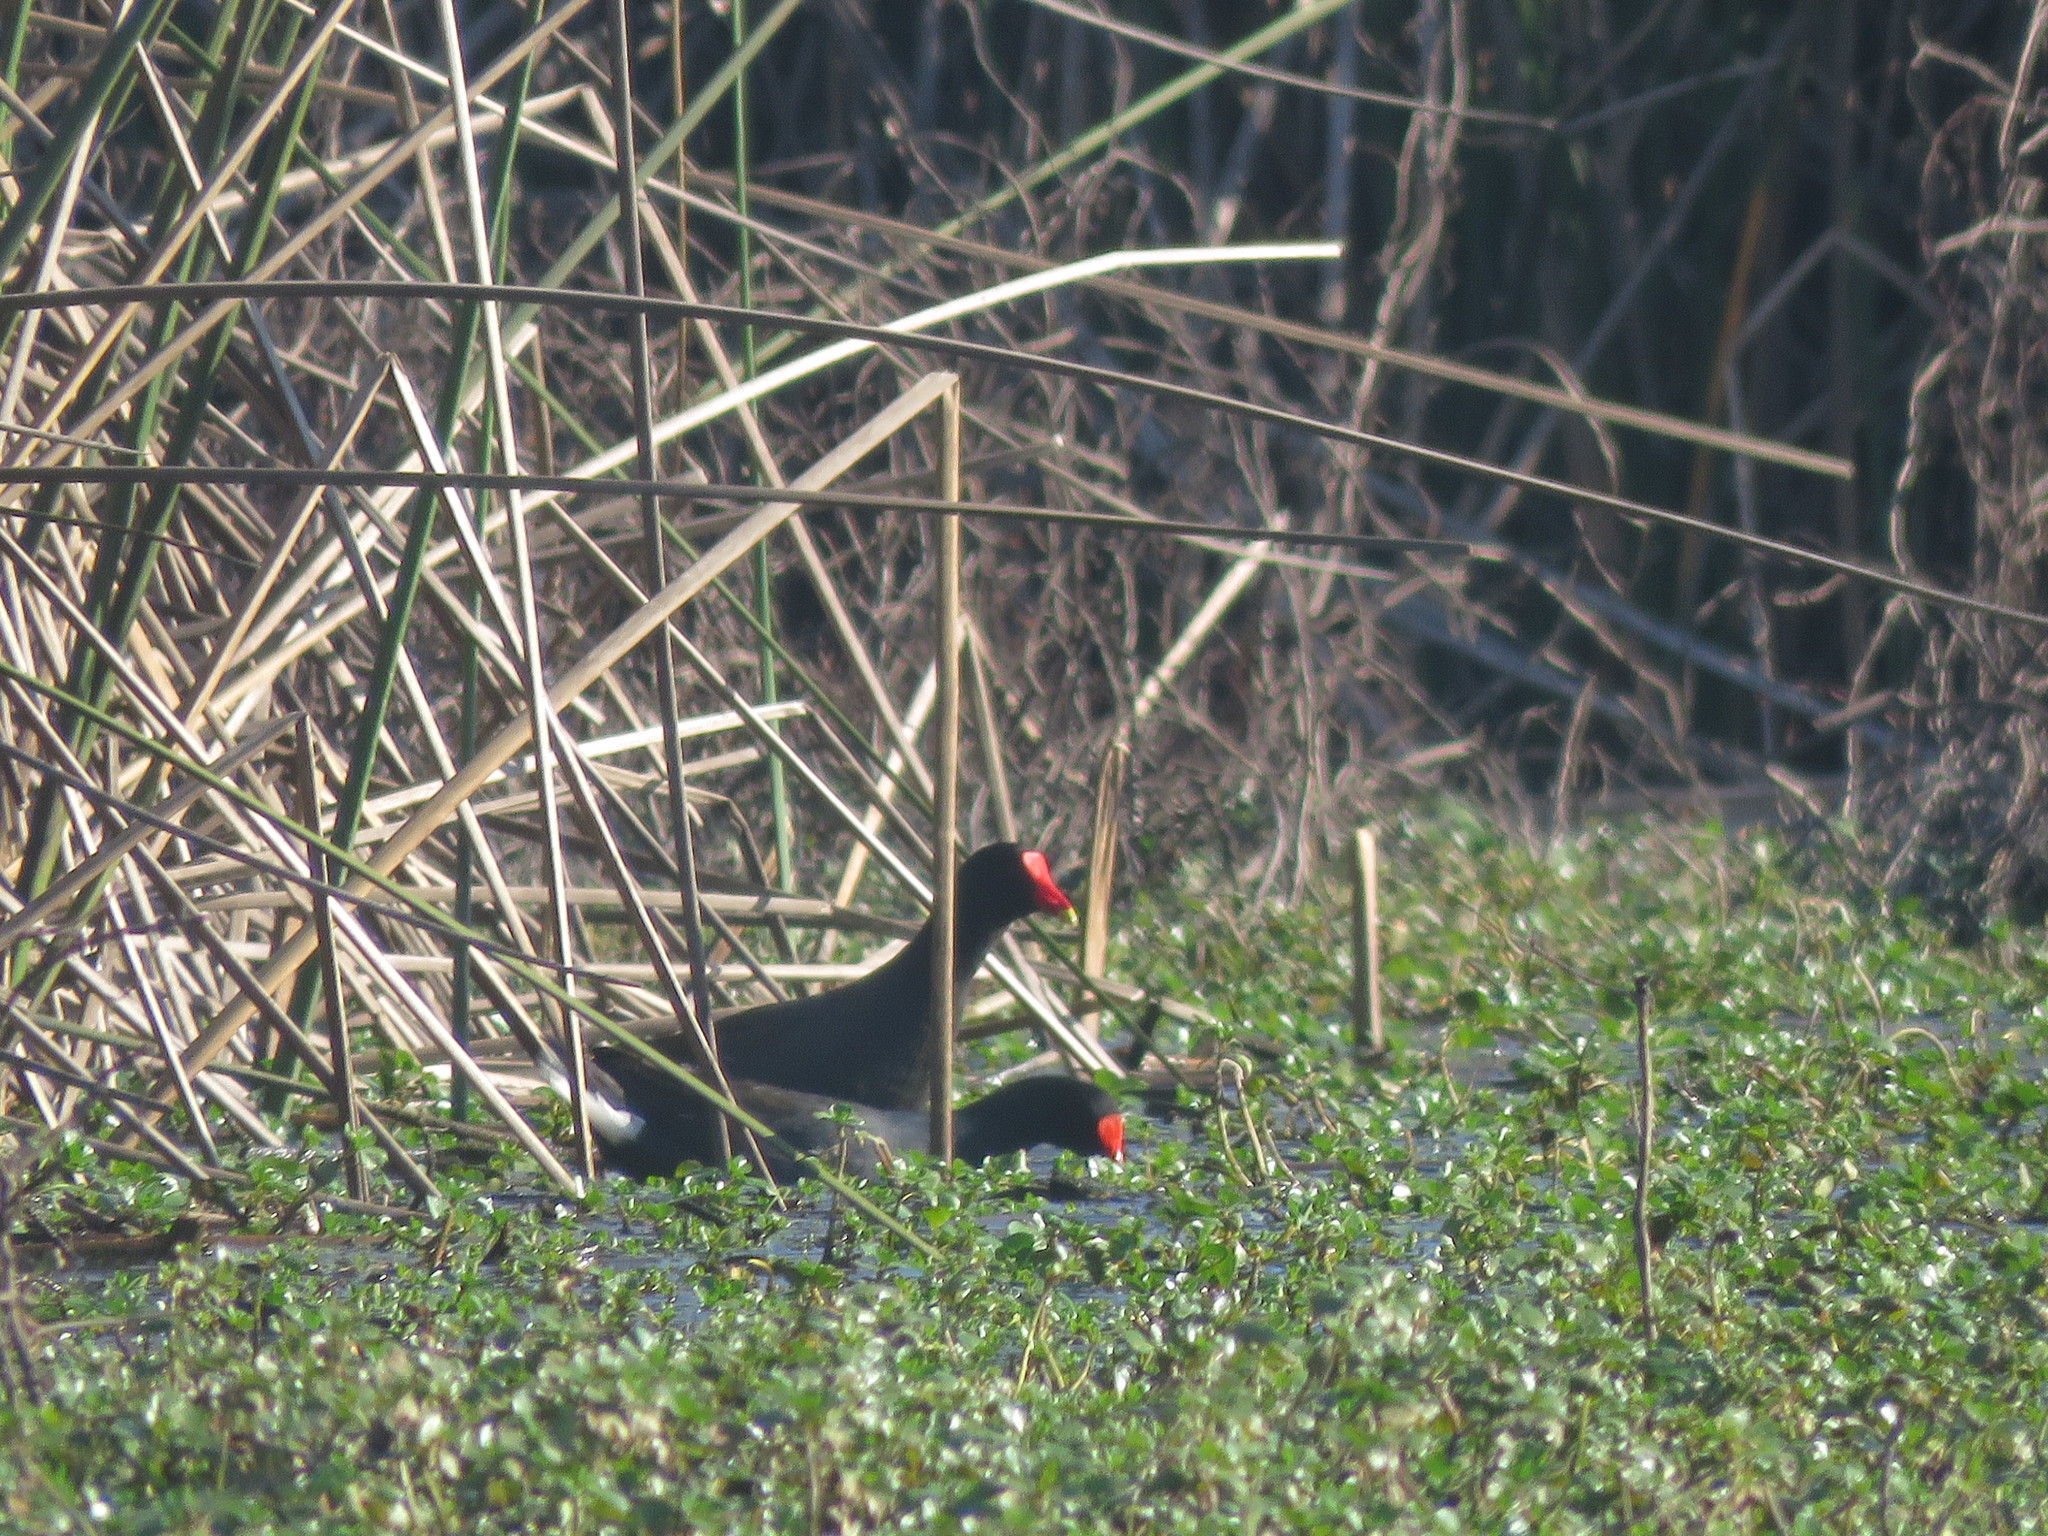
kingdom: Animalia
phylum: Chordata
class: Aves
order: Gruiformes
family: Rallidae
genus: Gallinula
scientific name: Gallinula chloropus
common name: Common moorhen
